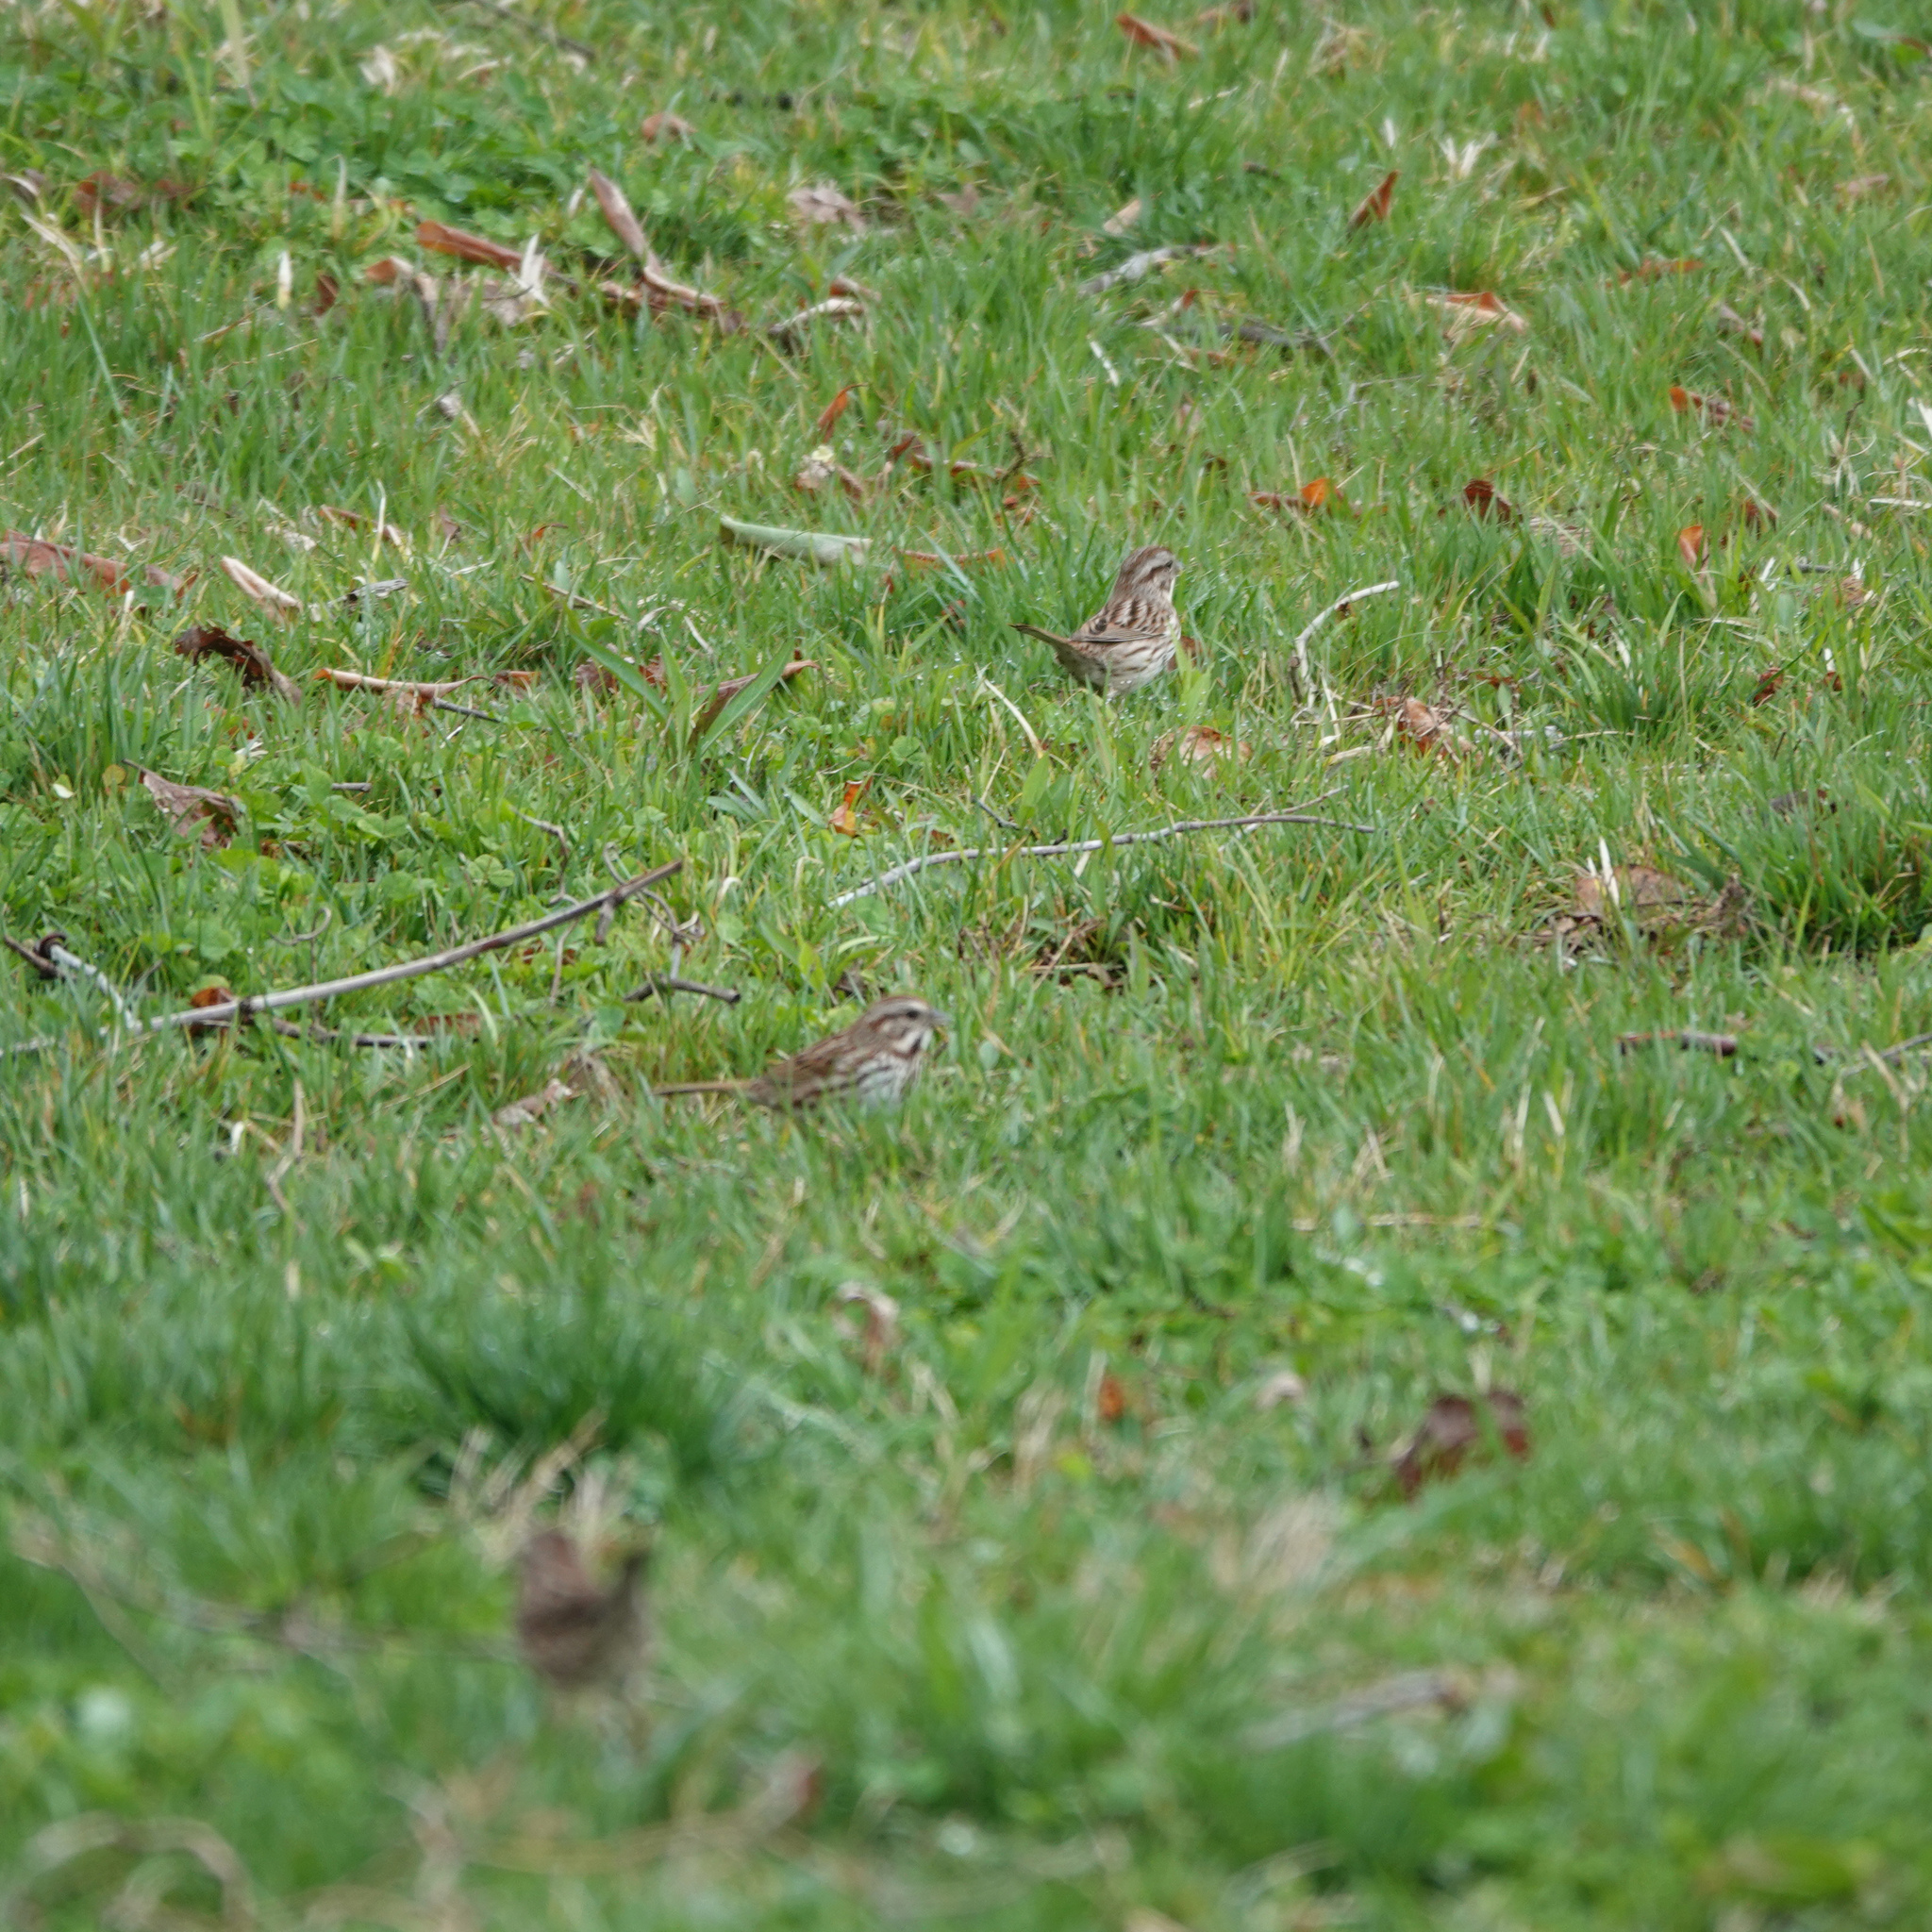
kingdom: Animalia
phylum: Chordata
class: Aves
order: Passeriformes
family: Passerellidae
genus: Melospiza
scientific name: Melospiza melodia
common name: Song sparrow
